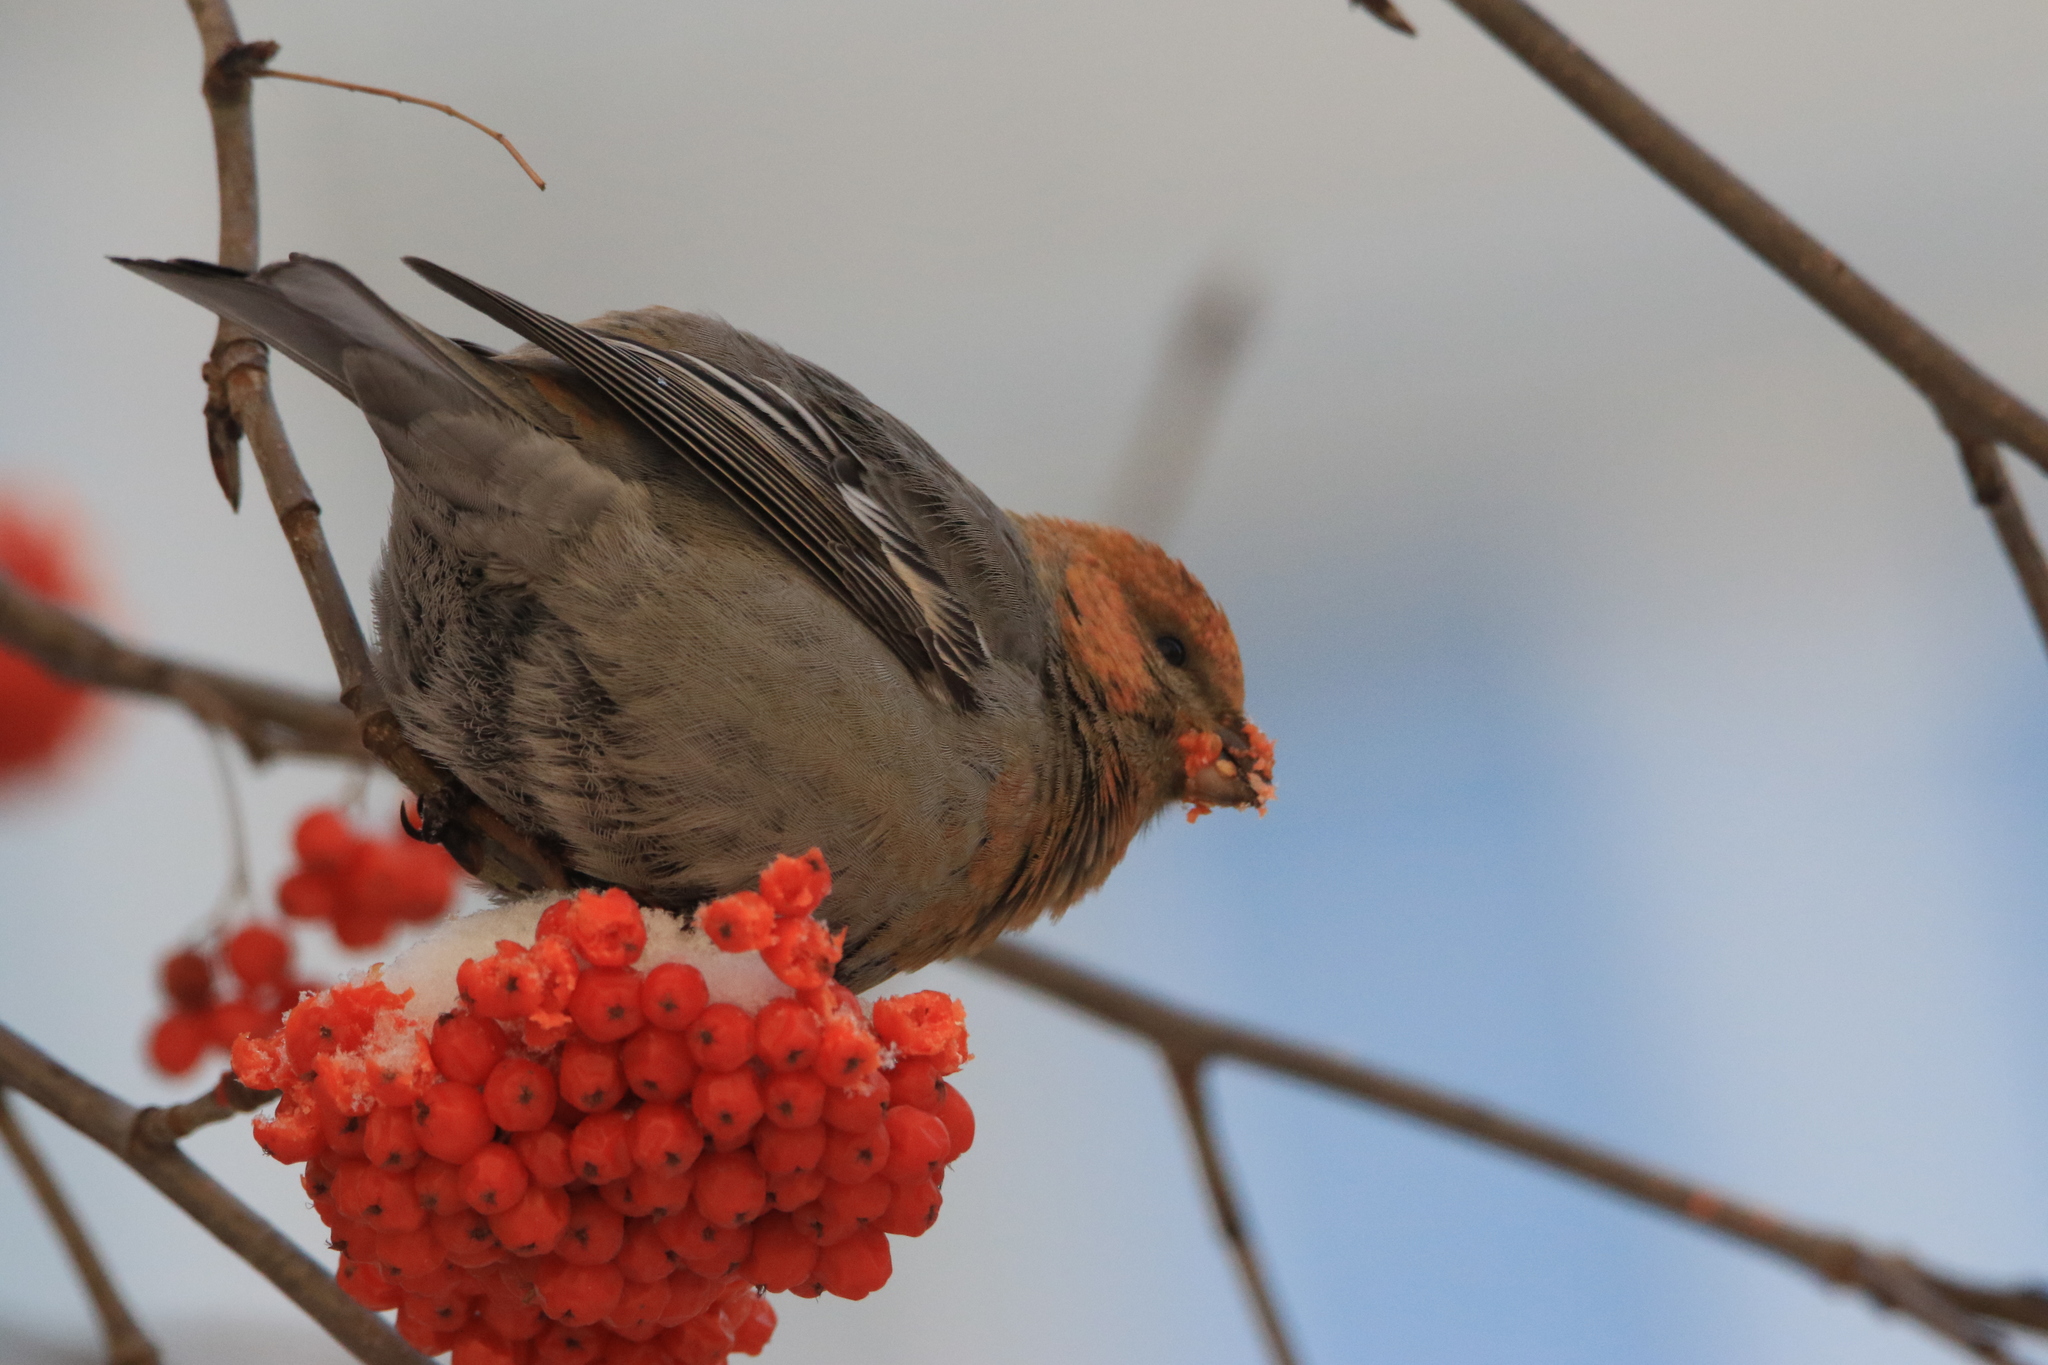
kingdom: Animalia
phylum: Chordata
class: Aves
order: Passeriformes
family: Fringillidae
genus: Pinicola
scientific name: Pinicola enucleator
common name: Pine grosbeak
